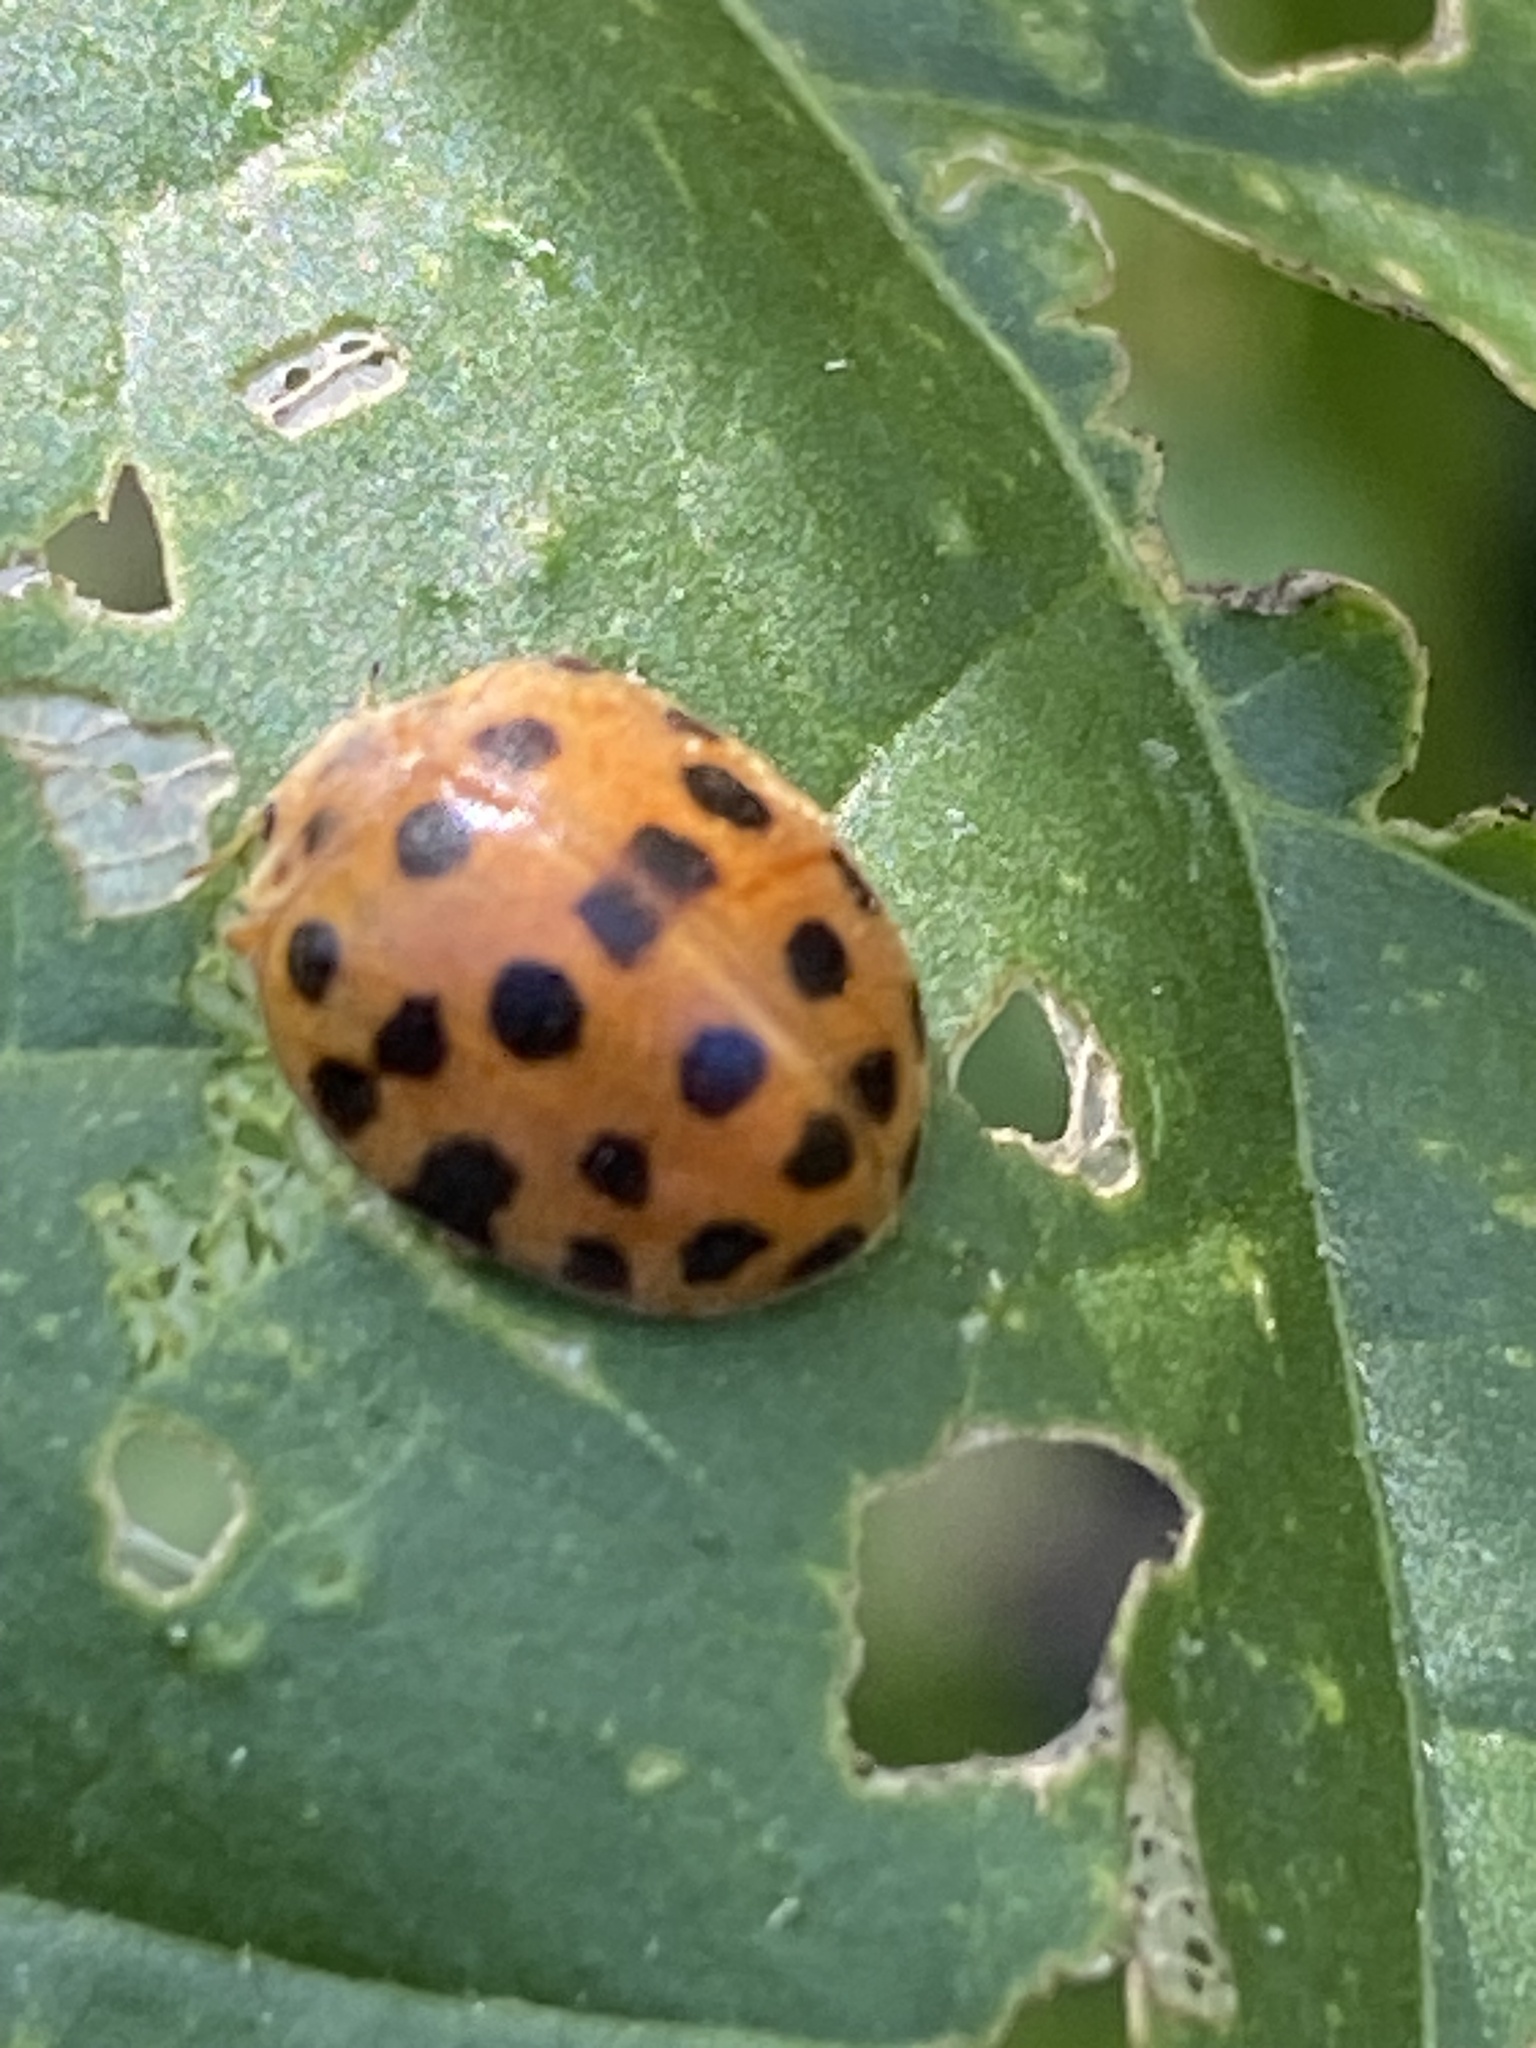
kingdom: Animalia
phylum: Arthropoda
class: Insecta
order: Coleoptera
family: Coccinellidae
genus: Henosepilachna
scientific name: Henosepilachna vigintioctopunctata
